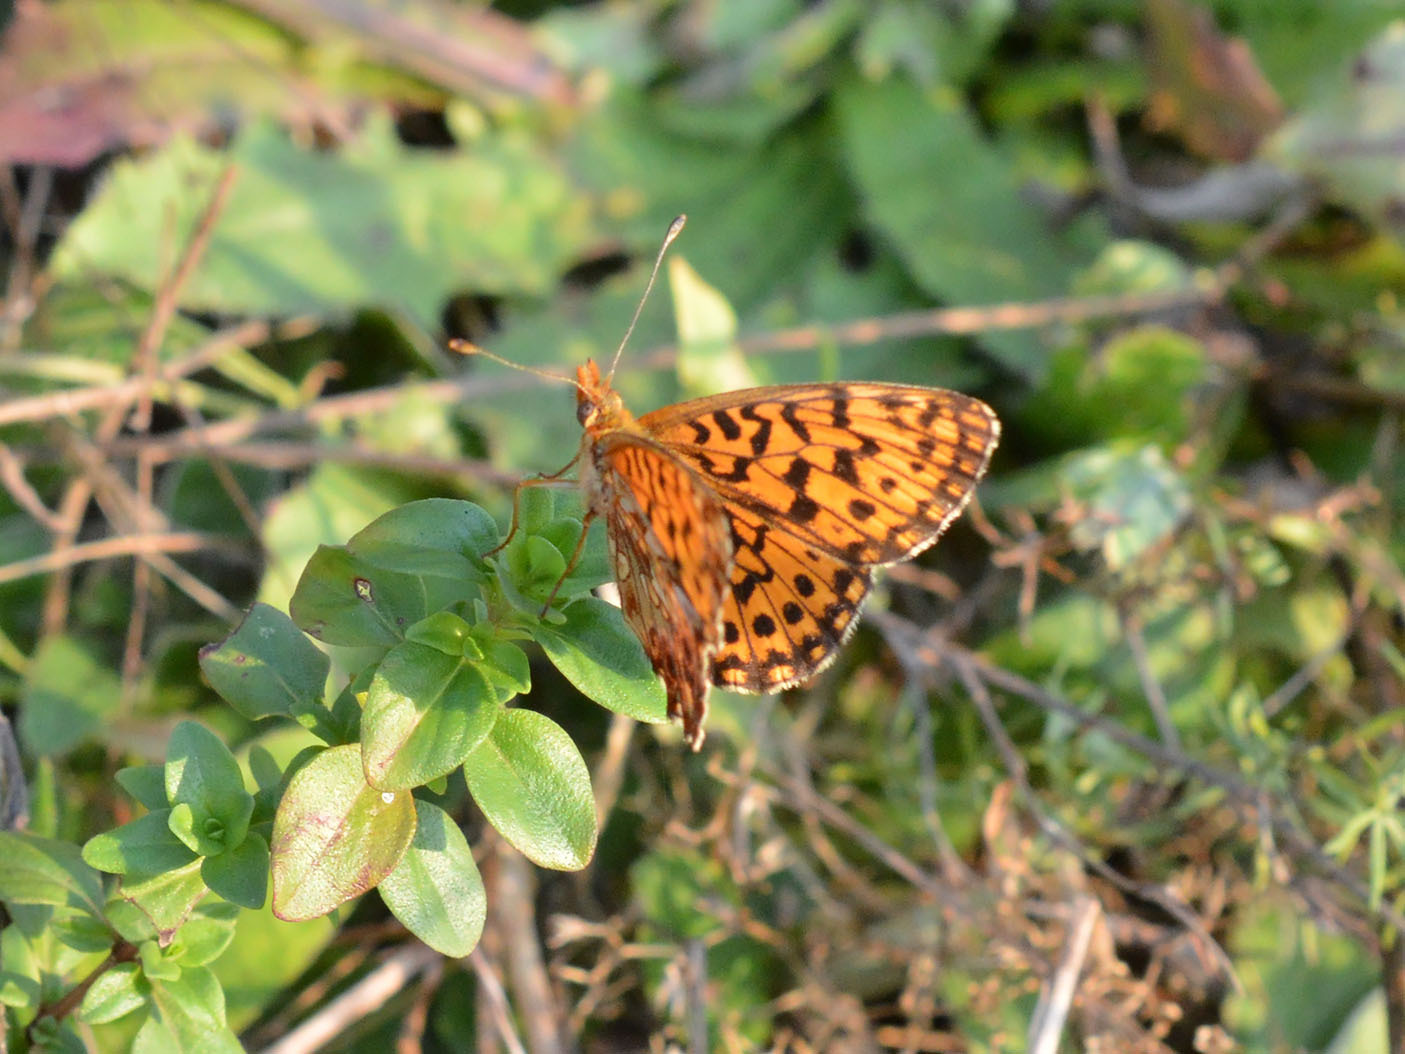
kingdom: Animalia
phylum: Arthropoda
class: Insecta
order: Lepidoptera
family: Nymphalidae
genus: Boloria
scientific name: Boloria dia
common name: Weaver's fritillary
